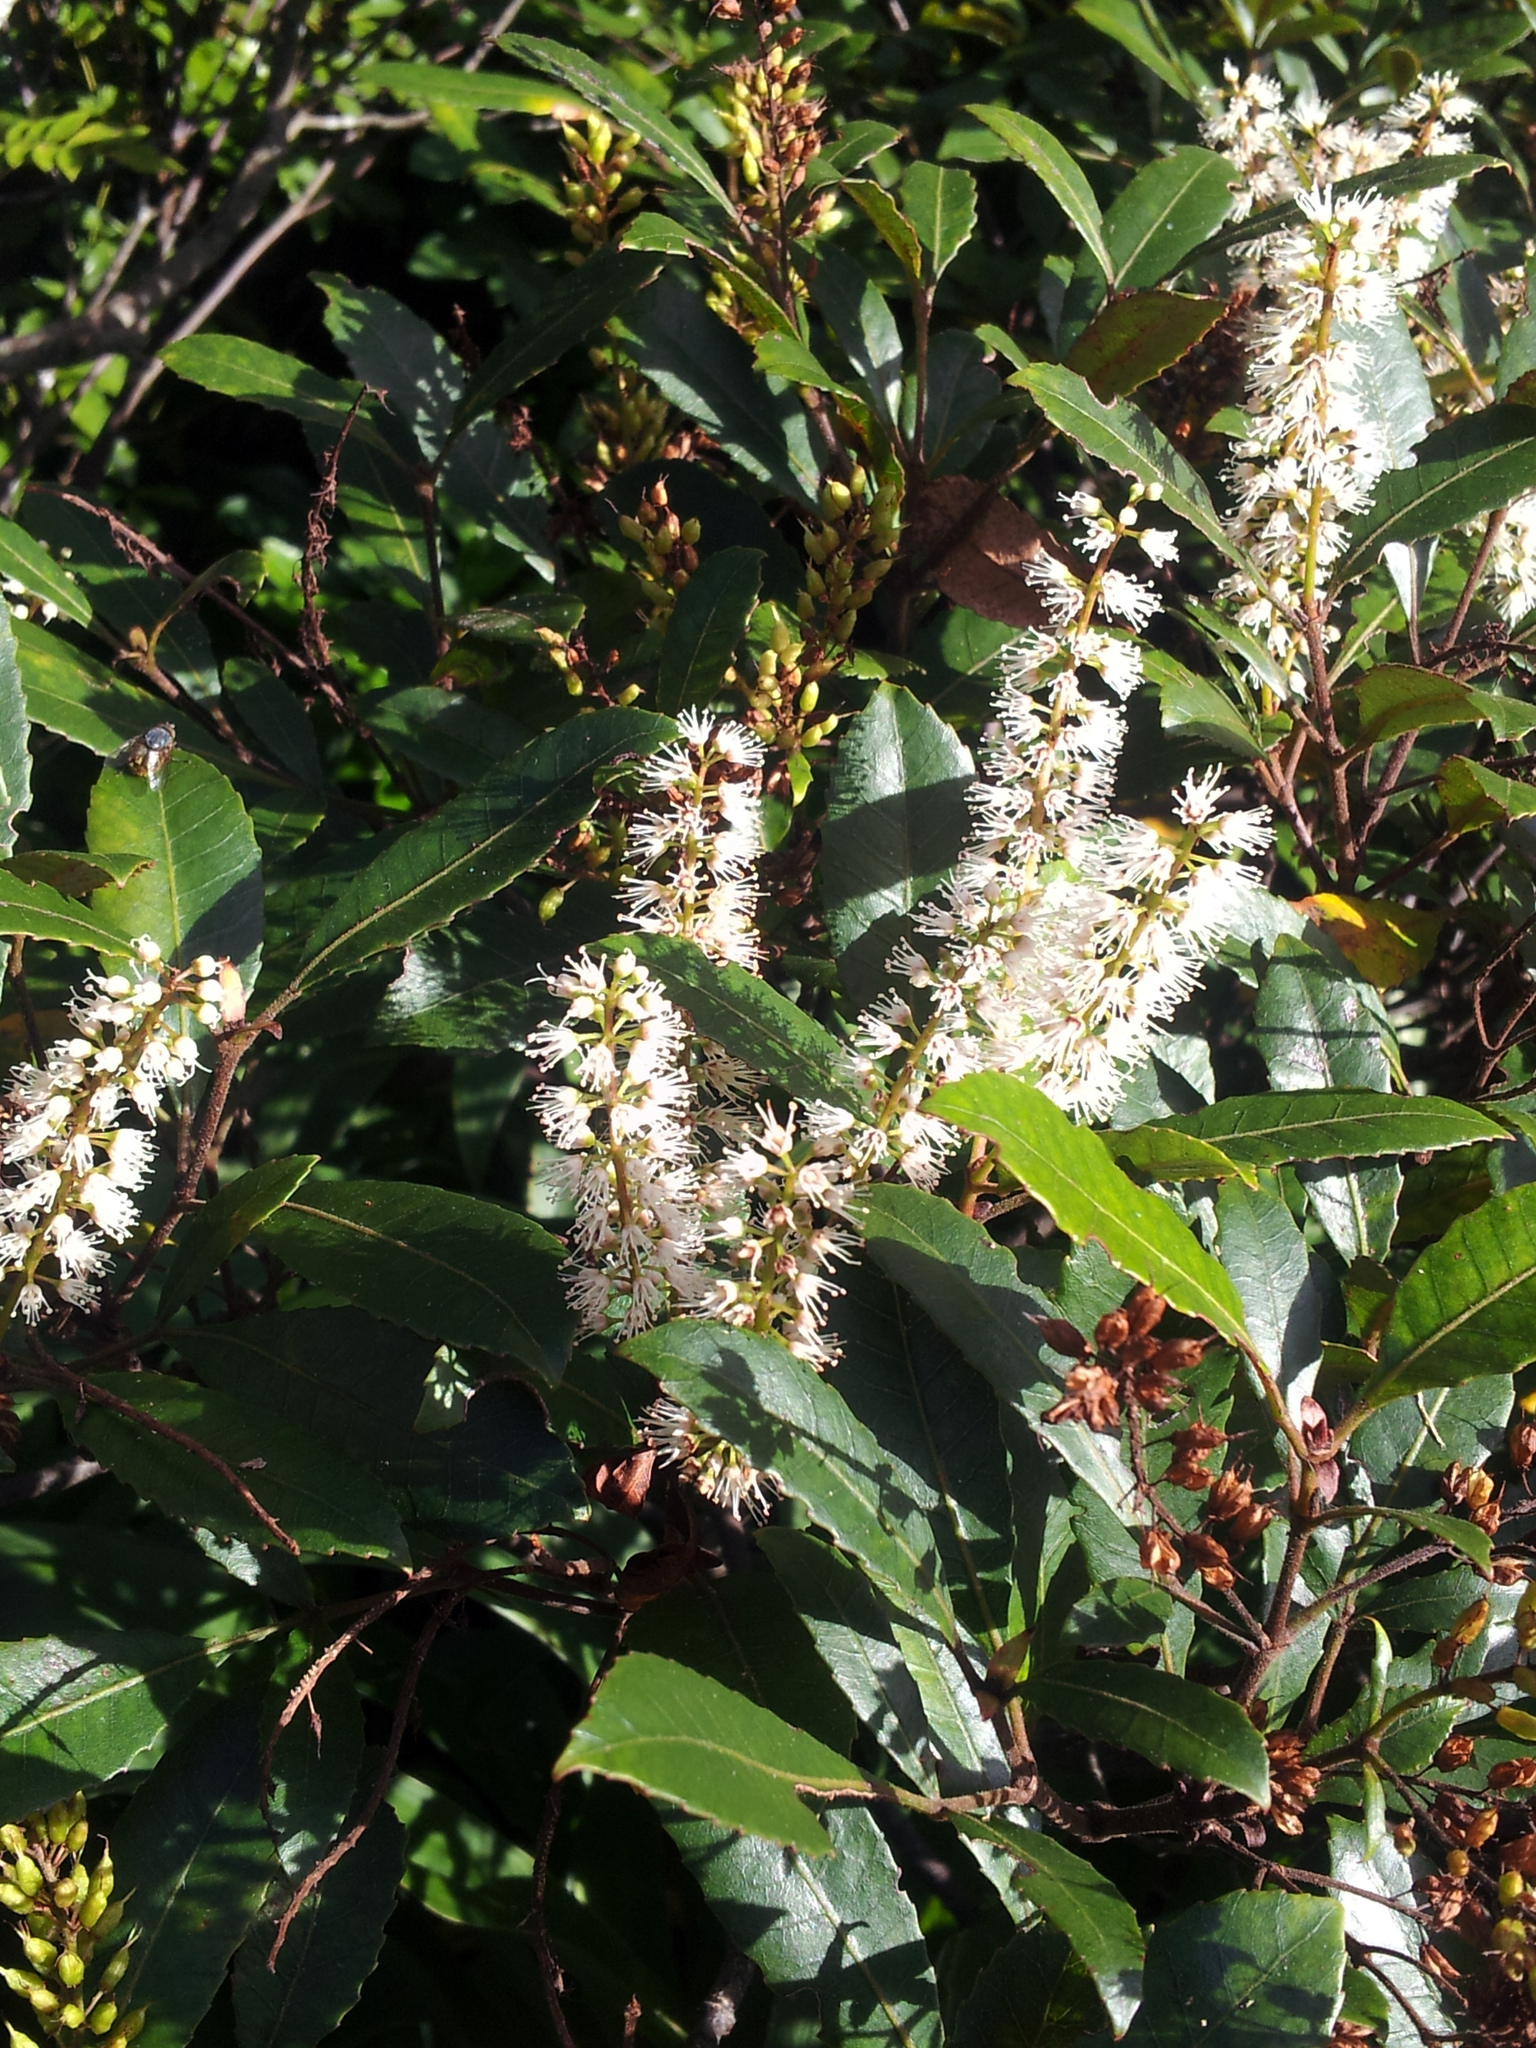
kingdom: Plantae
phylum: Tracheophyta
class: Magnoliopsida
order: Oxalidales
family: Cunoniaceae
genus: Pterophylla
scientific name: Pterophylla sylvicola
